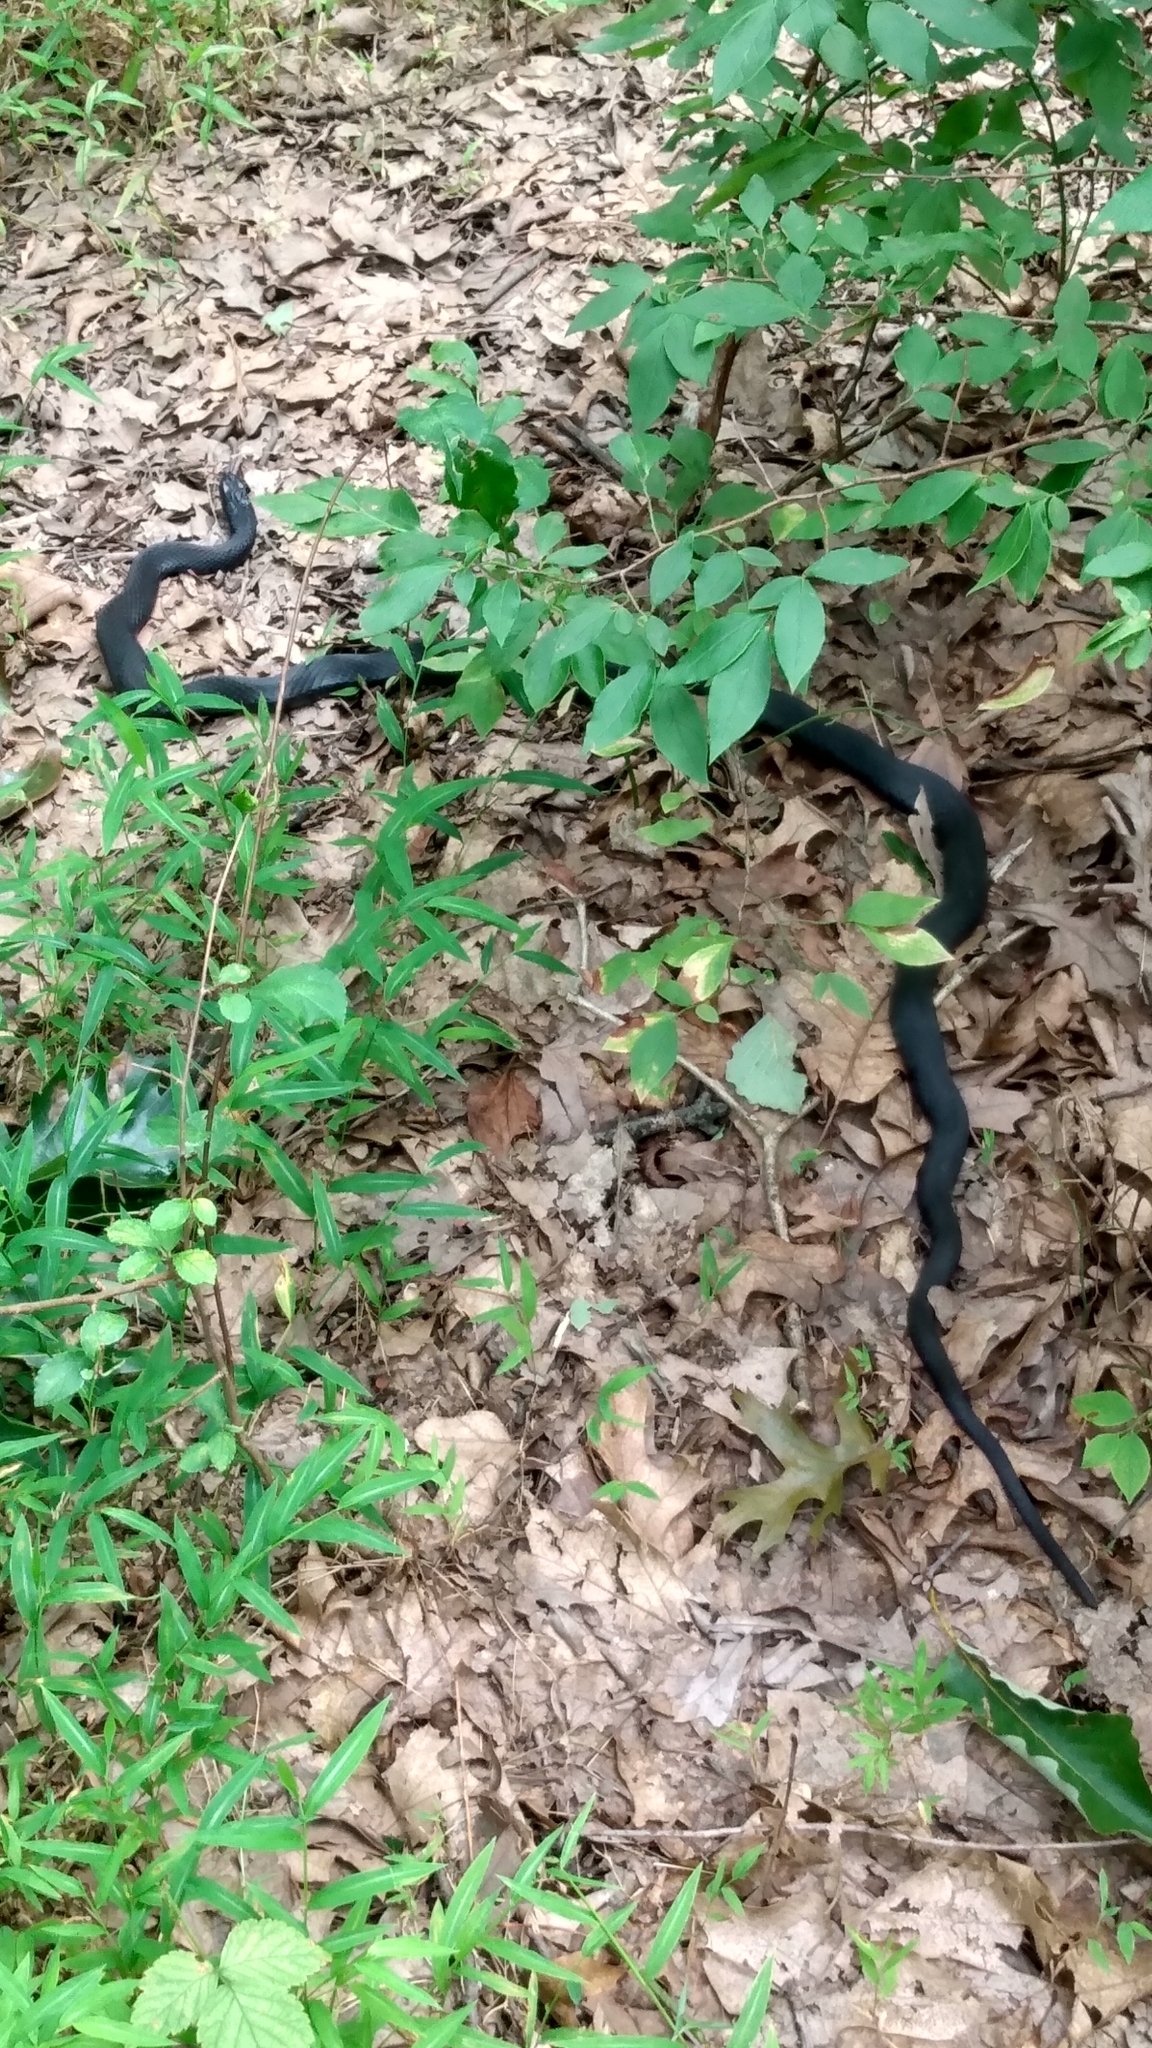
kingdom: Animalia
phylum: Chordata
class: Squamata
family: Colubridae
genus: Coluber
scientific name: Coluber constrictor
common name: Eastern racer
